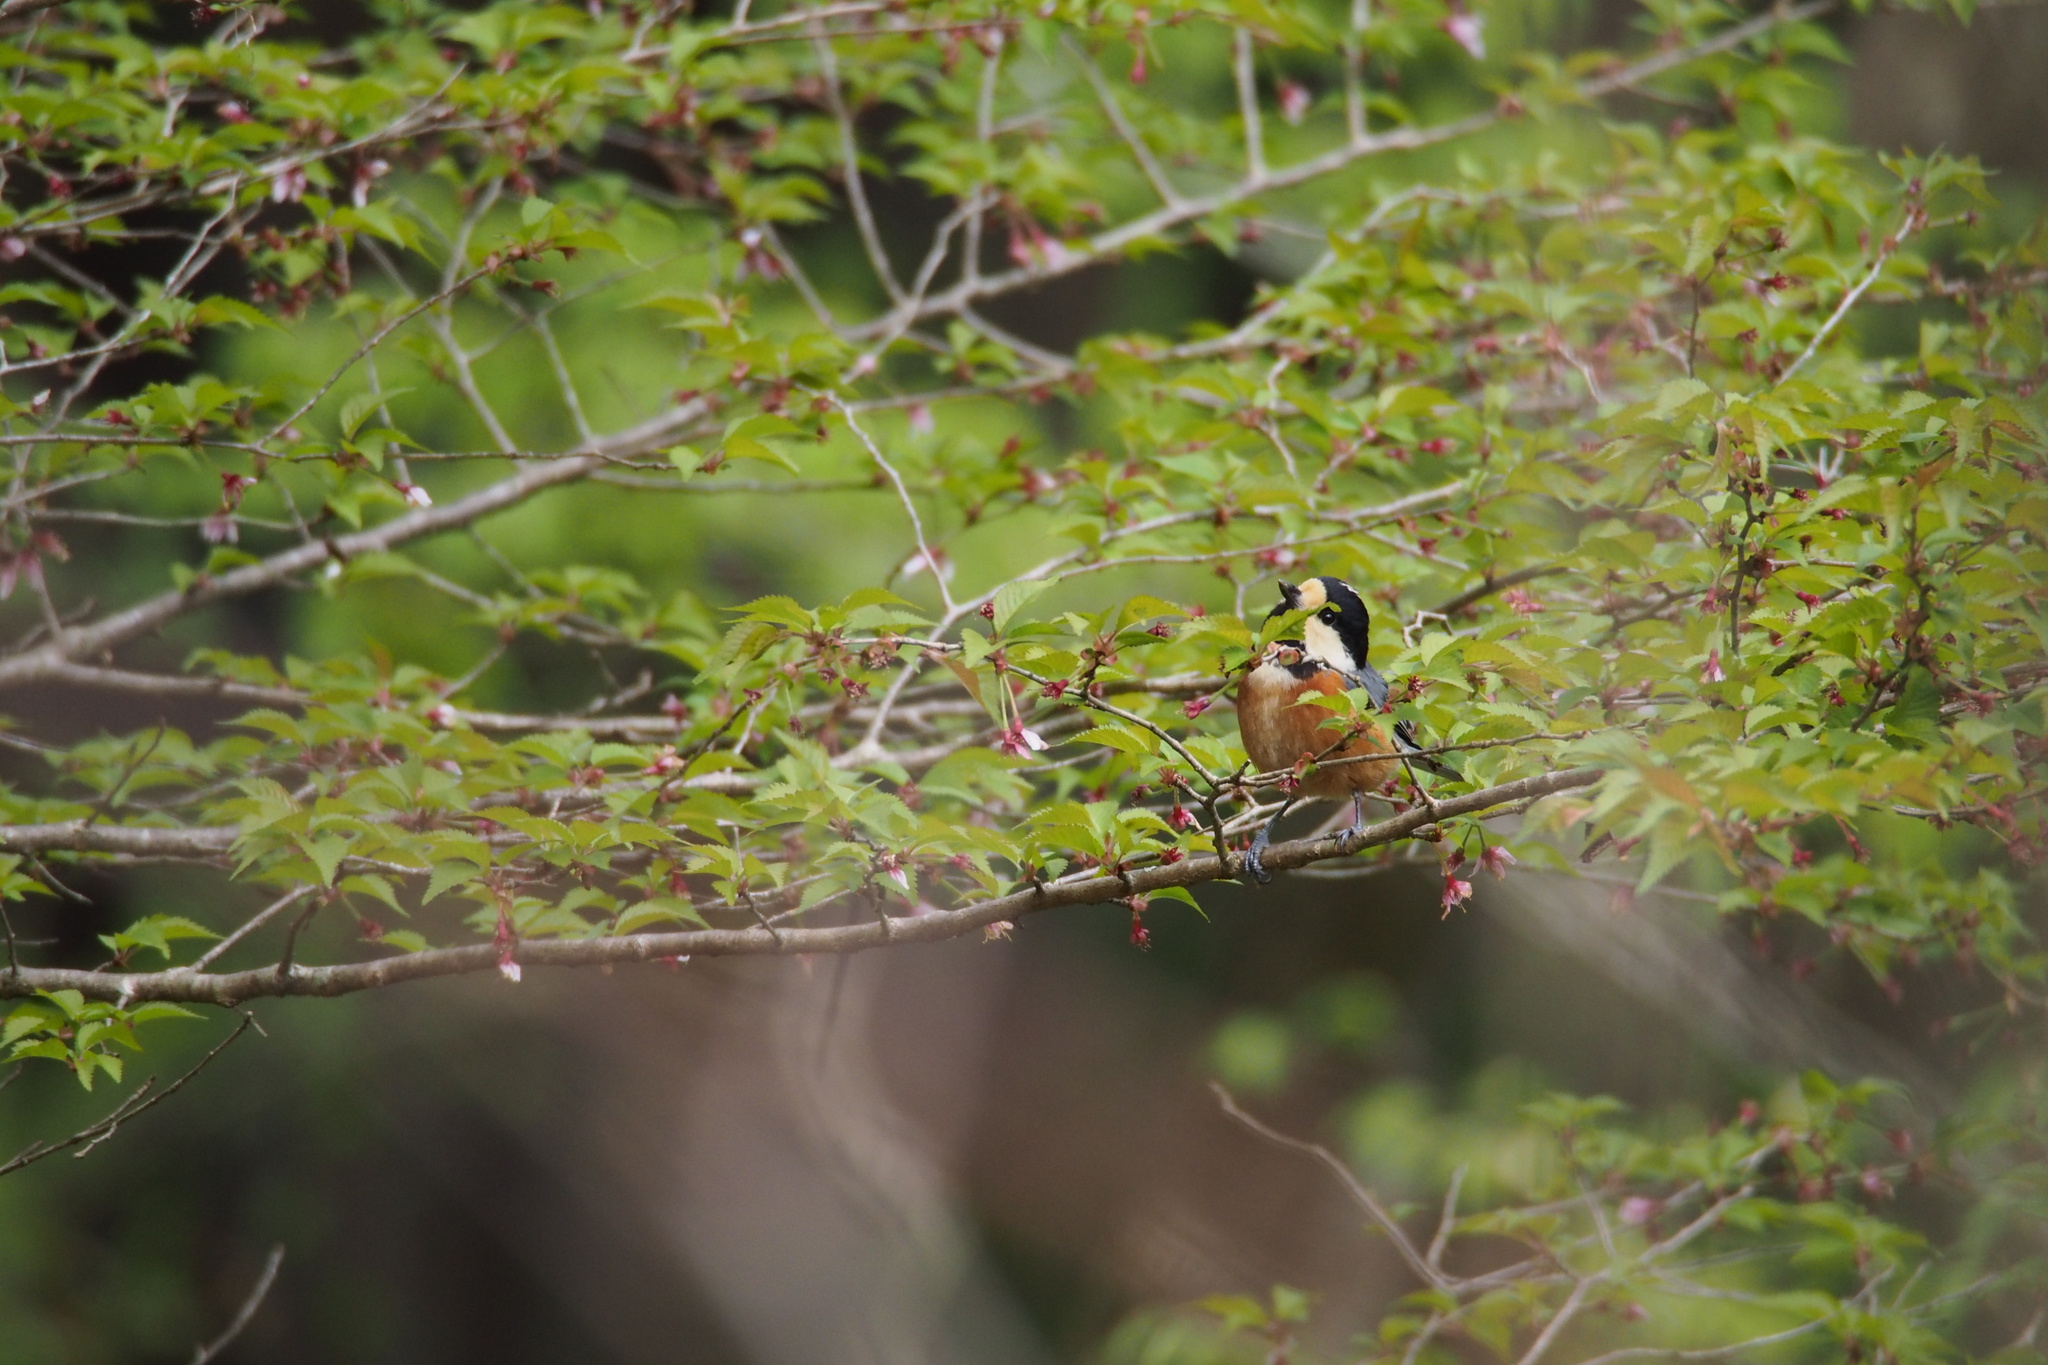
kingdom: Animalia
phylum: Chordata
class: Aves
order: Passeriformes
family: Paridae
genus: Poecile
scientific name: Poecile varius
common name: Varied tit
